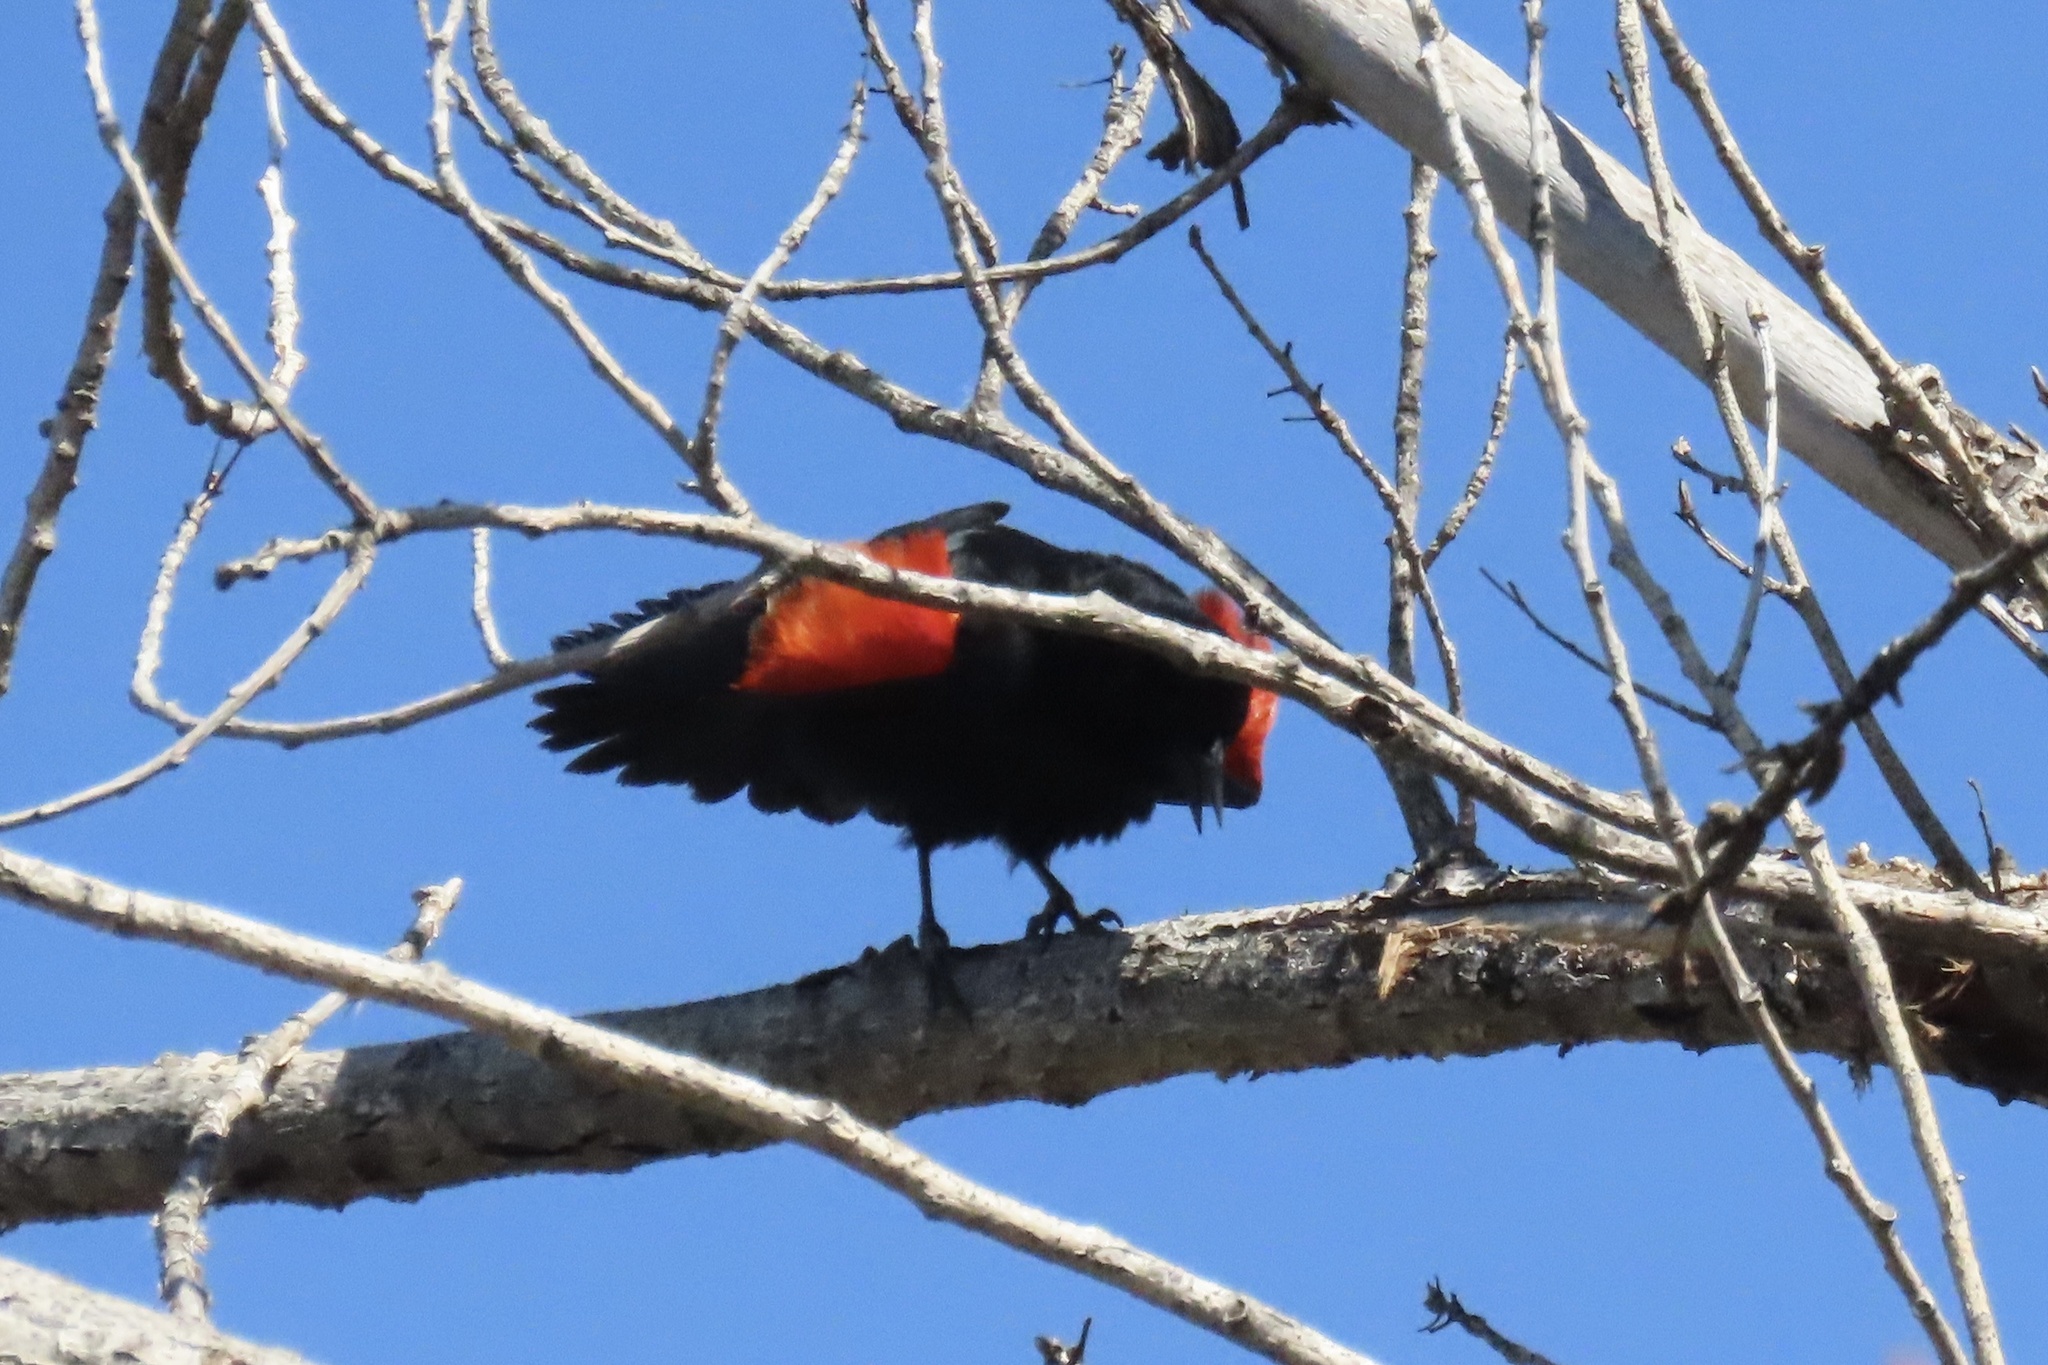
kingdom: Animalia
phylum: Chordata
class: Aves
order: Passeriformes
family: Icteridae
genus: Agelaius
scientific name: Agelaius phoeniceus
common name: Red-winged blackbird
